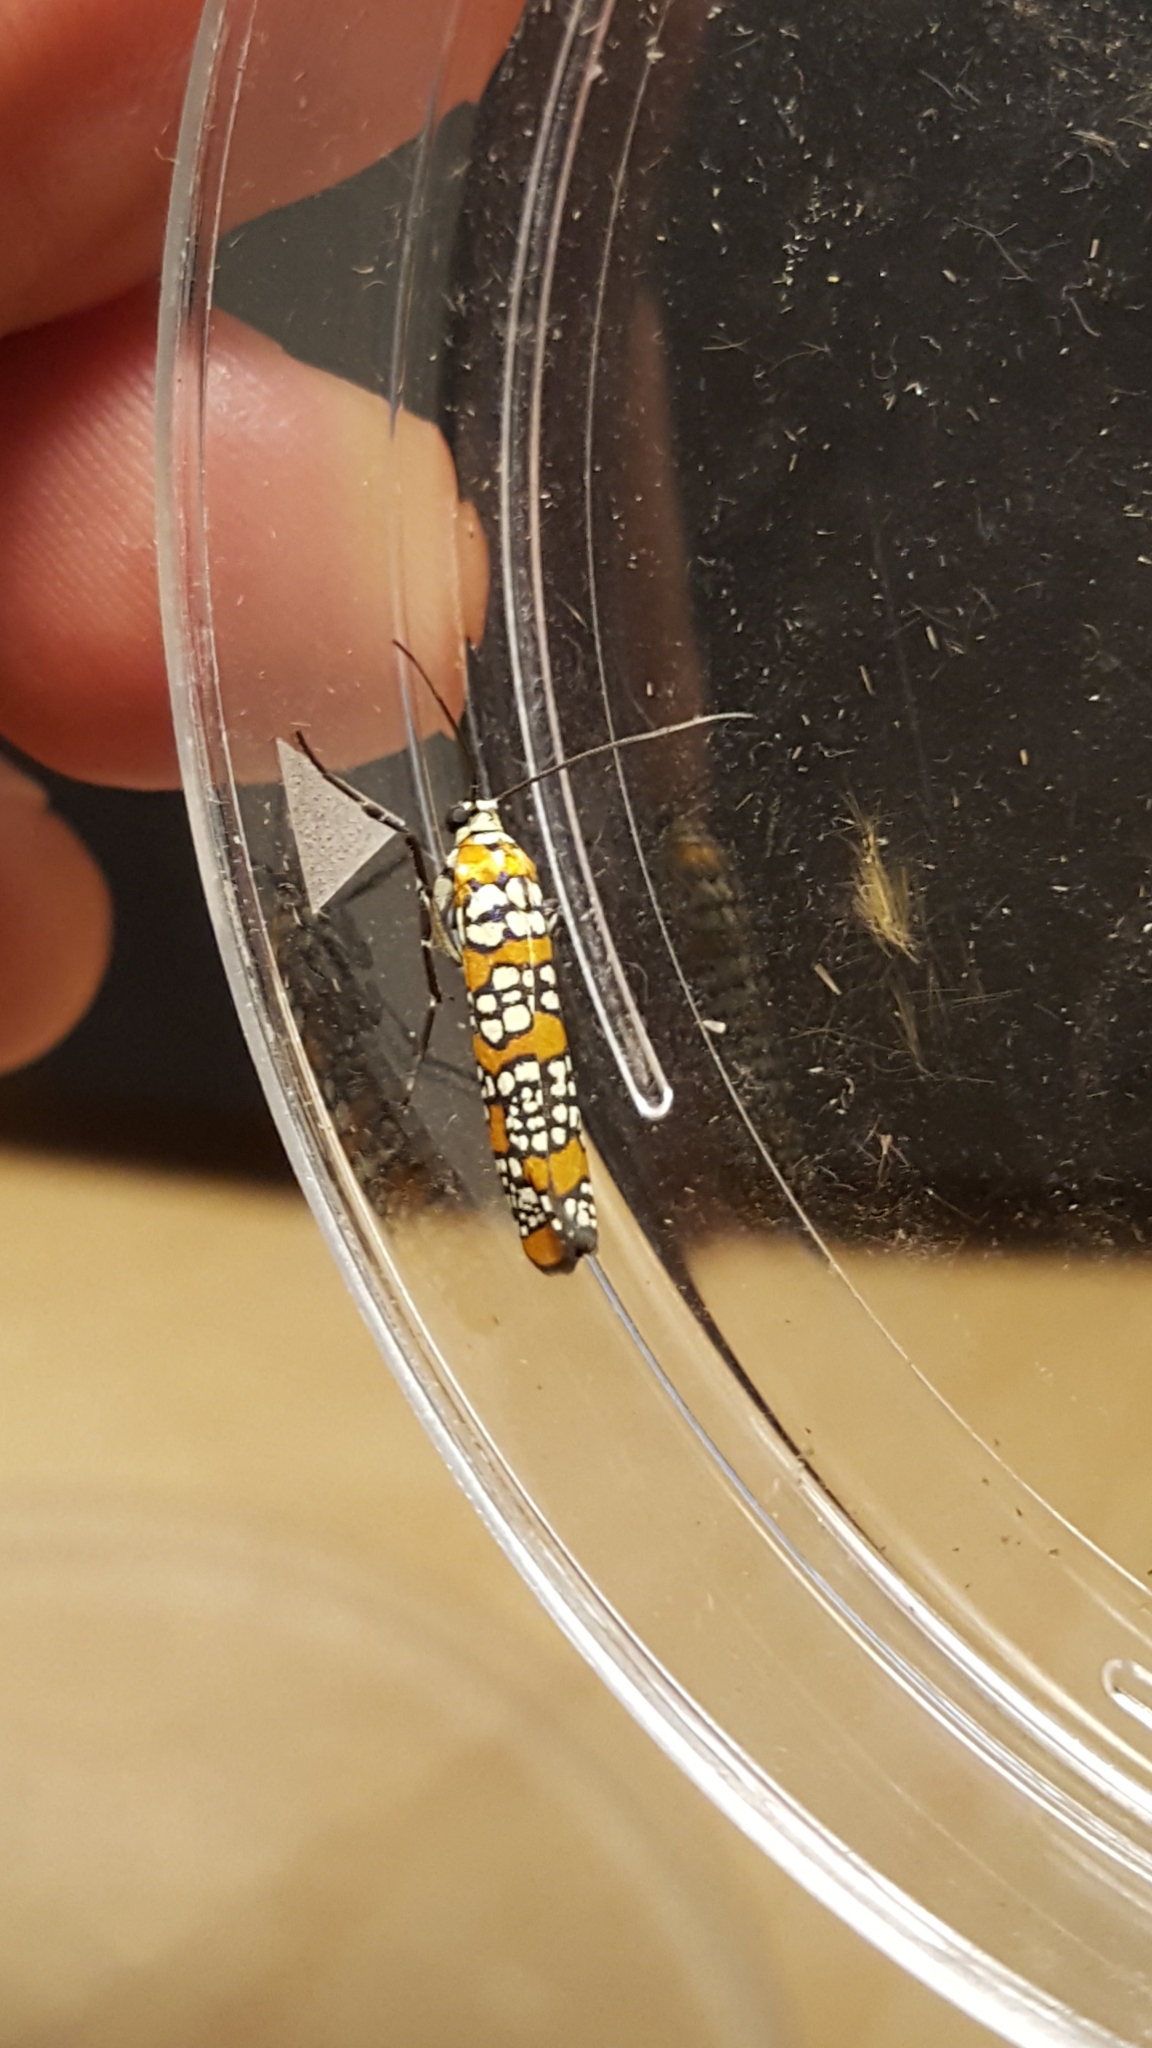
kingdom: Animalia
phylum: Arthropoda
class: Insecta
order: Lepidoptera
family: Attevidae
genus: Atteva
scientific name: Atteva punctella
